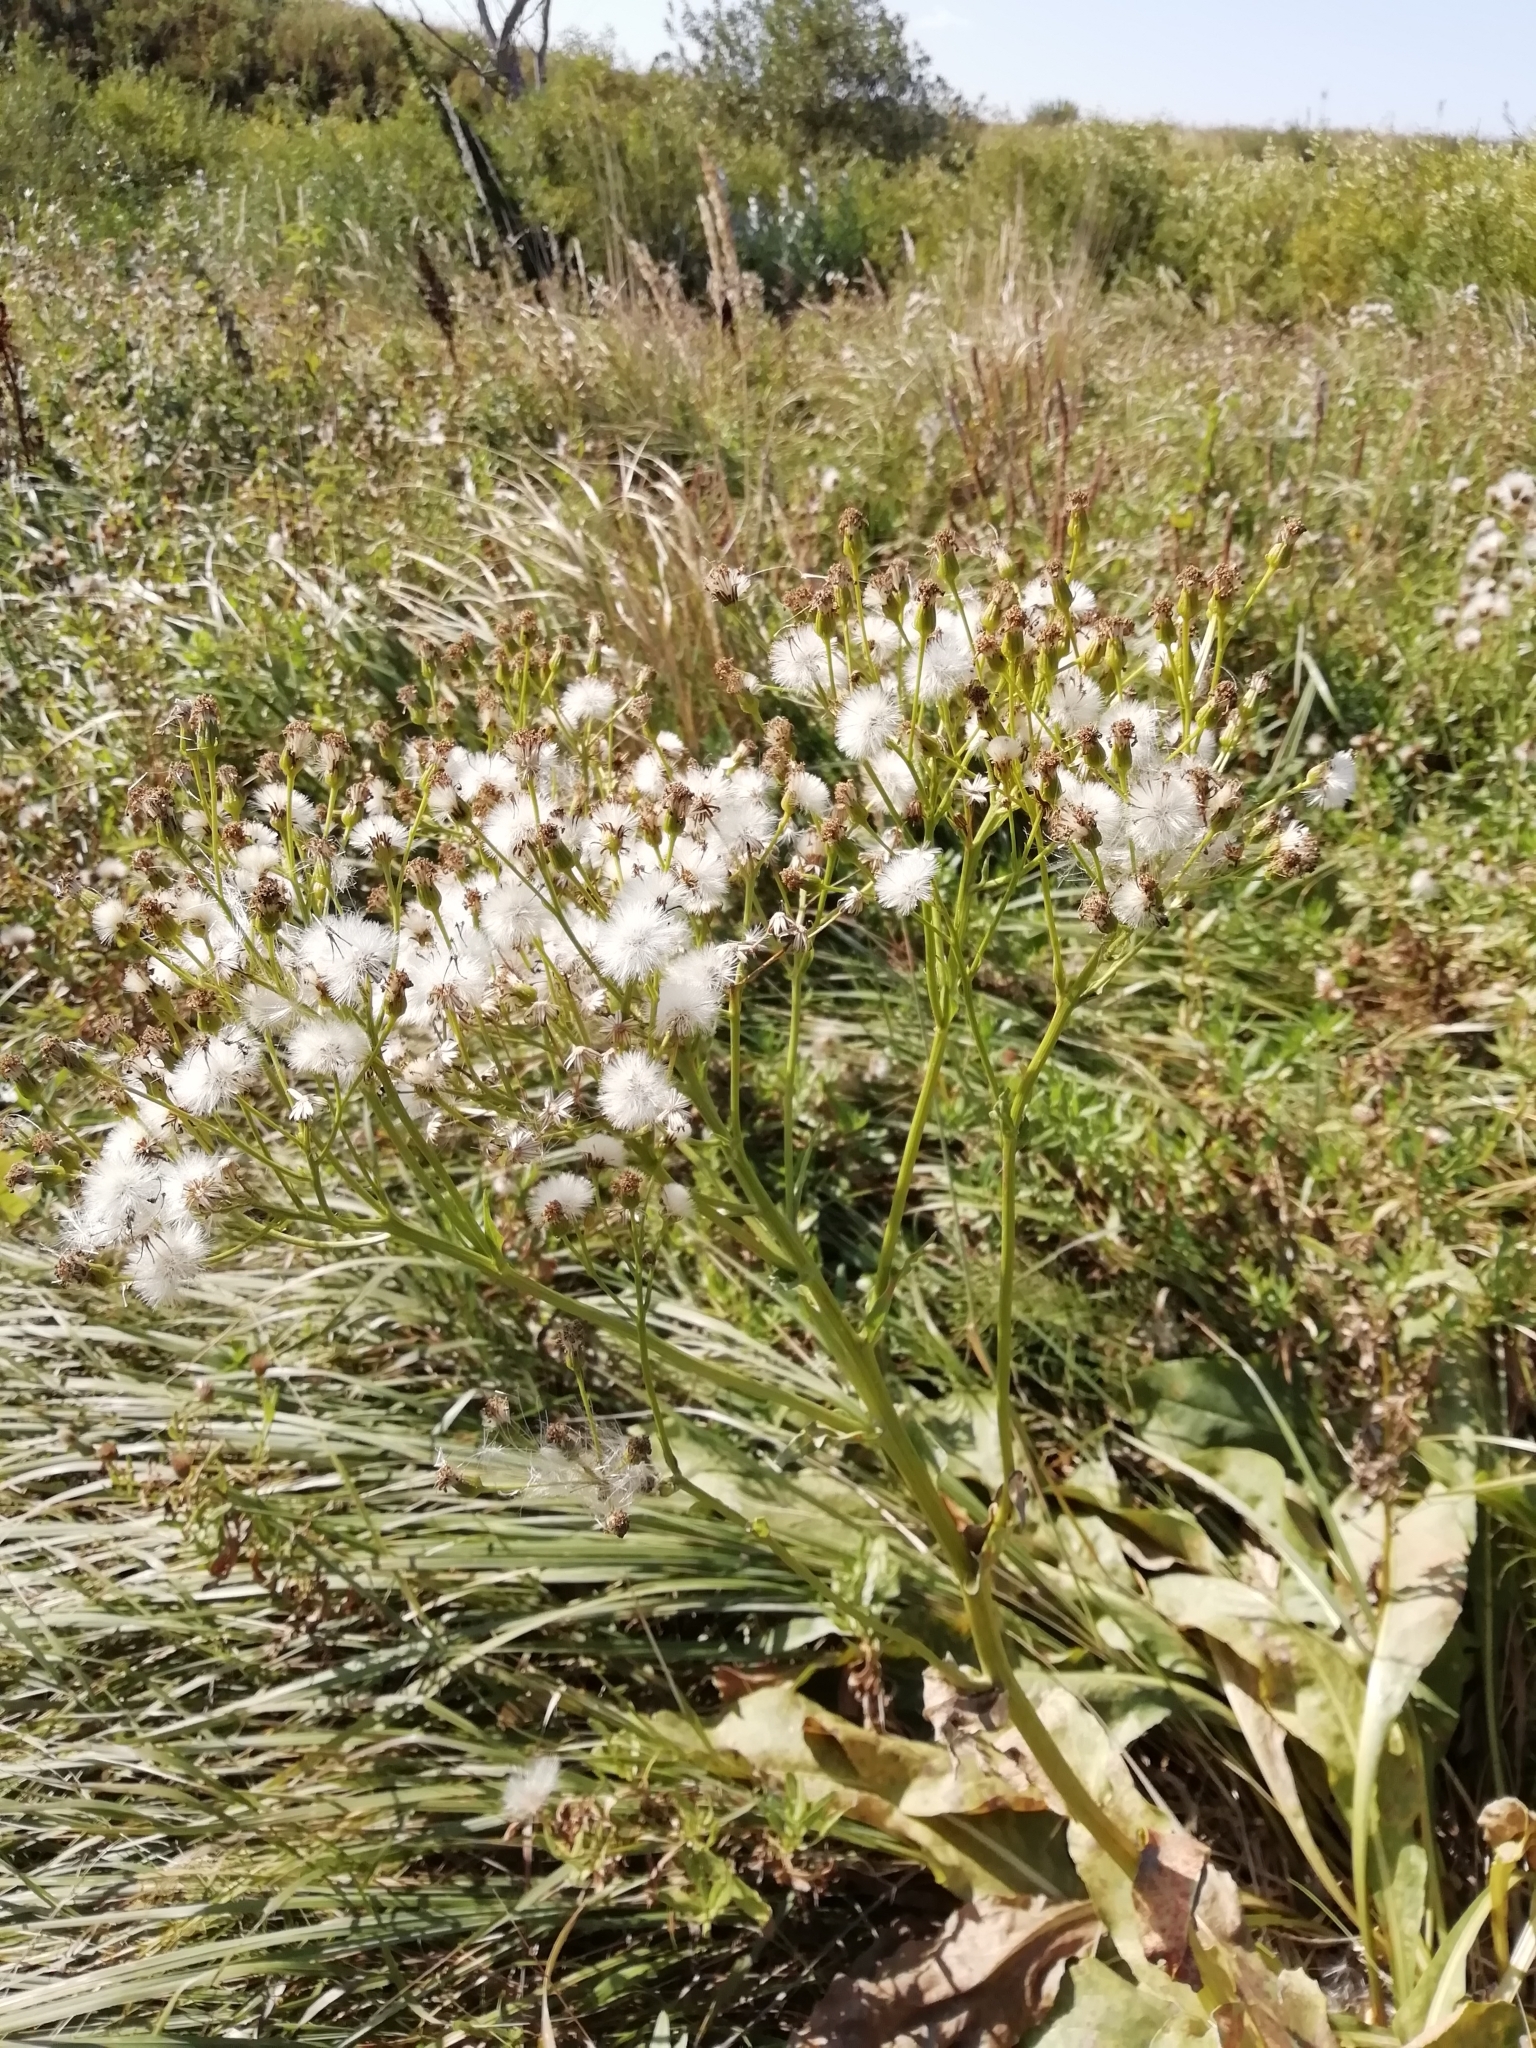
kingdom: Plantae
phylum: Tracheophyta
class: Magnoliopsida
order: Asterales
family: Asteraceae
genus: Senecio
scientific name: Senecio doria
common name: Golden ragwort
